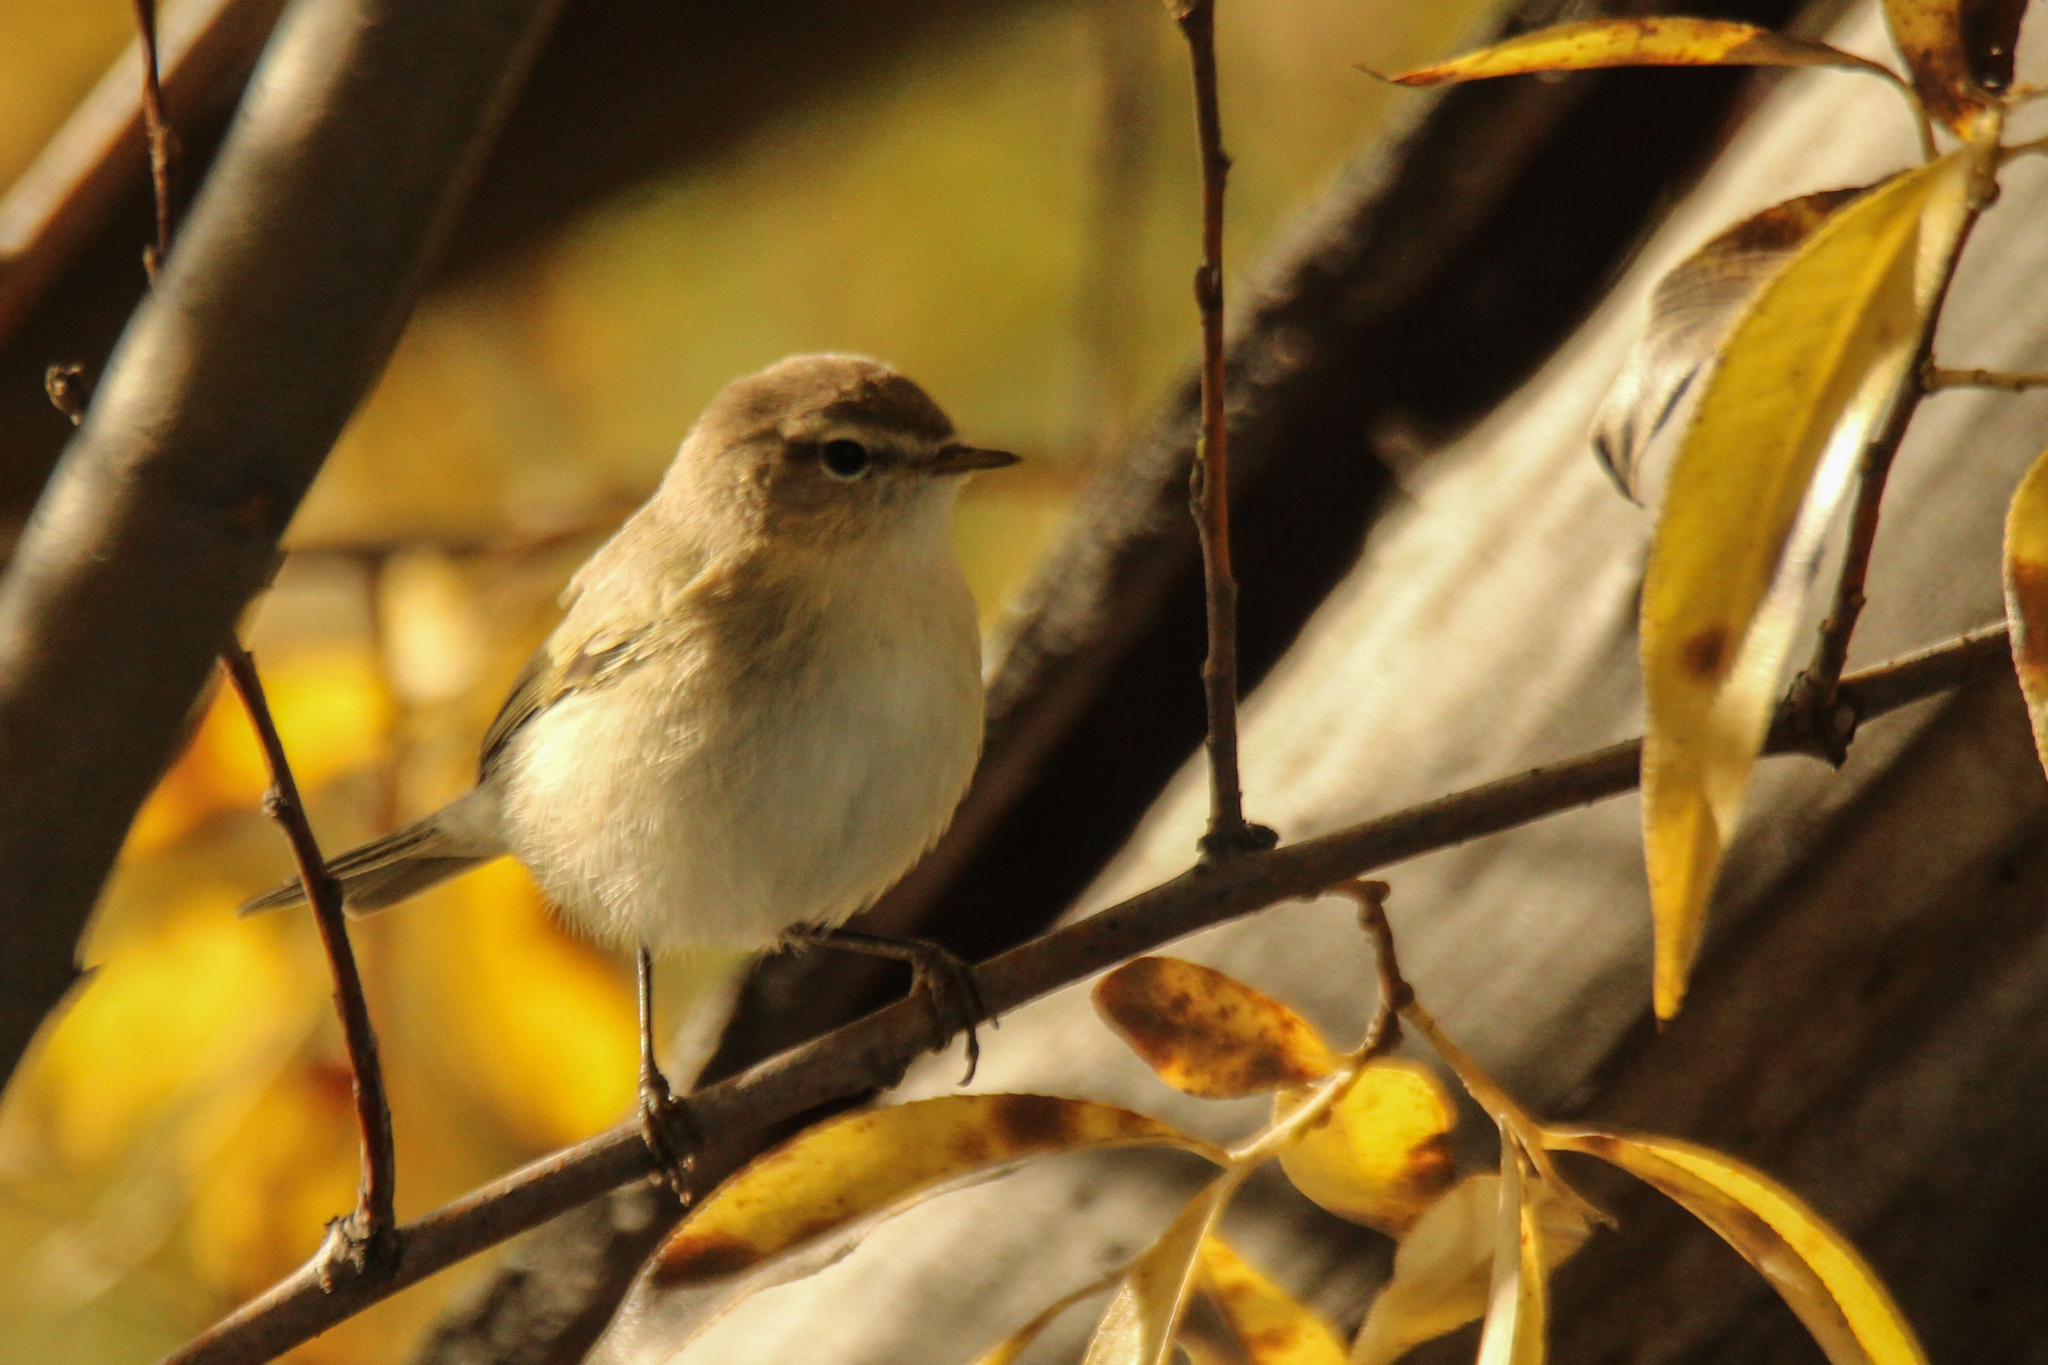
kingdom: Animalia
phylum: Chordata
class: Aves
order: Passeriformes
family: Phylloscopidae
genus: Phylloscopus
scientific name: Phylloscopus collybita
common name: Common chiffchaff
